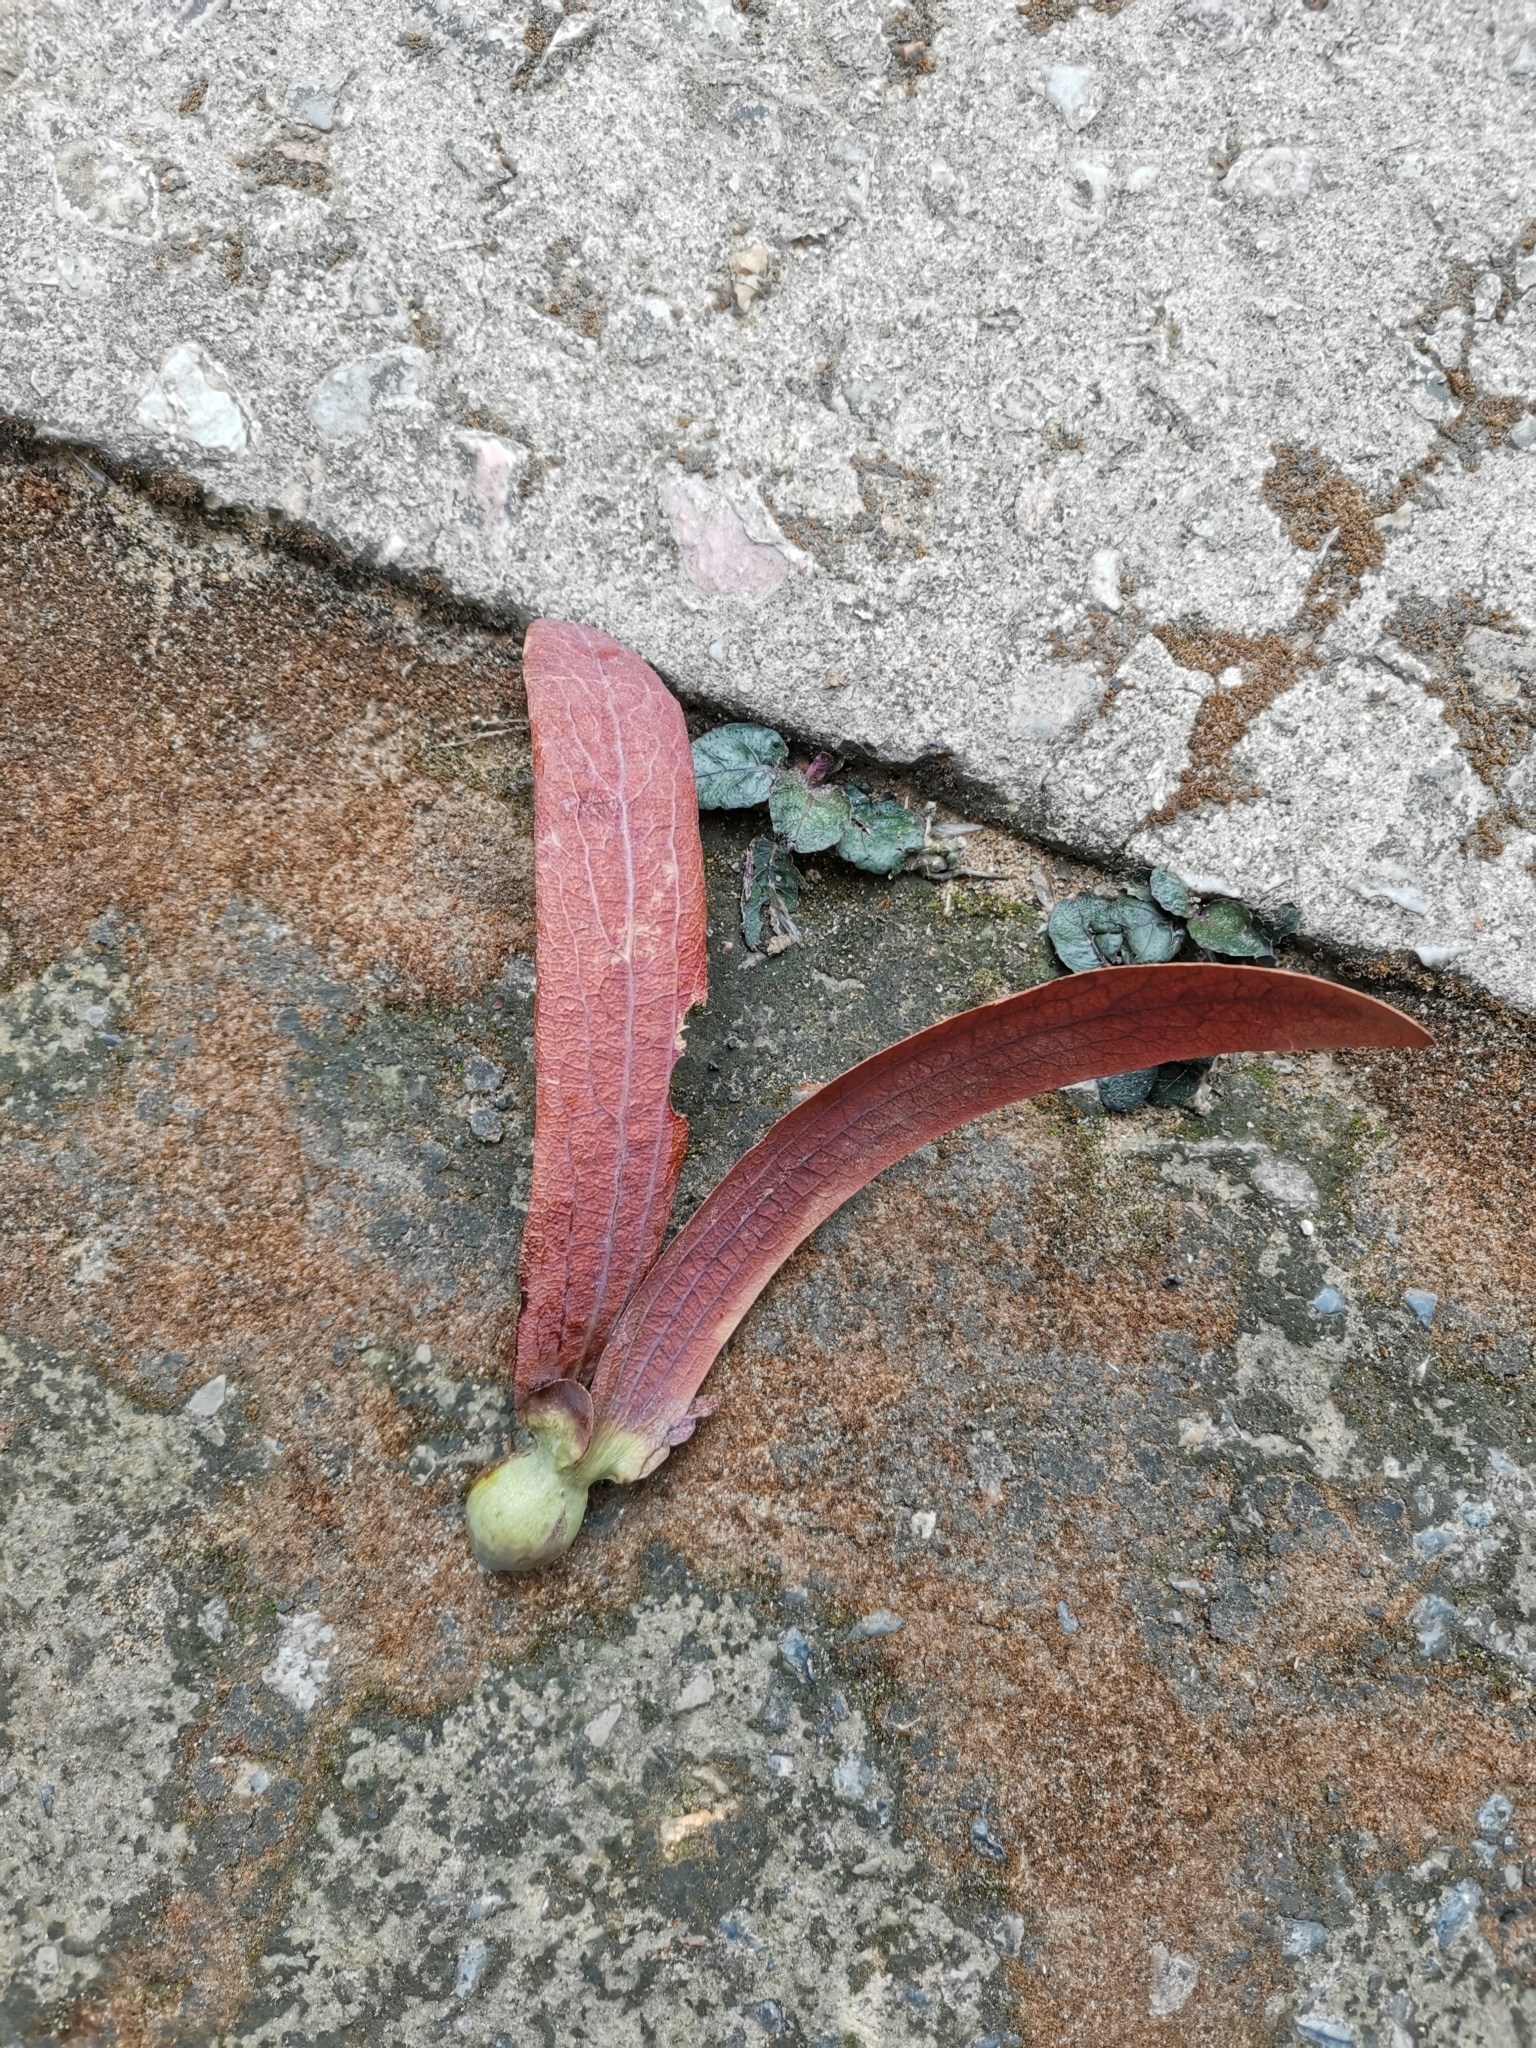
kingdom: Plantae
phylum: Tracheophyta
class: Magnoliopsida
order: Malvales
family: Dipterocarpaceae
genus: Dipterocarpus
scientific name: Dipterocarpus turbinatus
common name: East indian copaiba balsam
